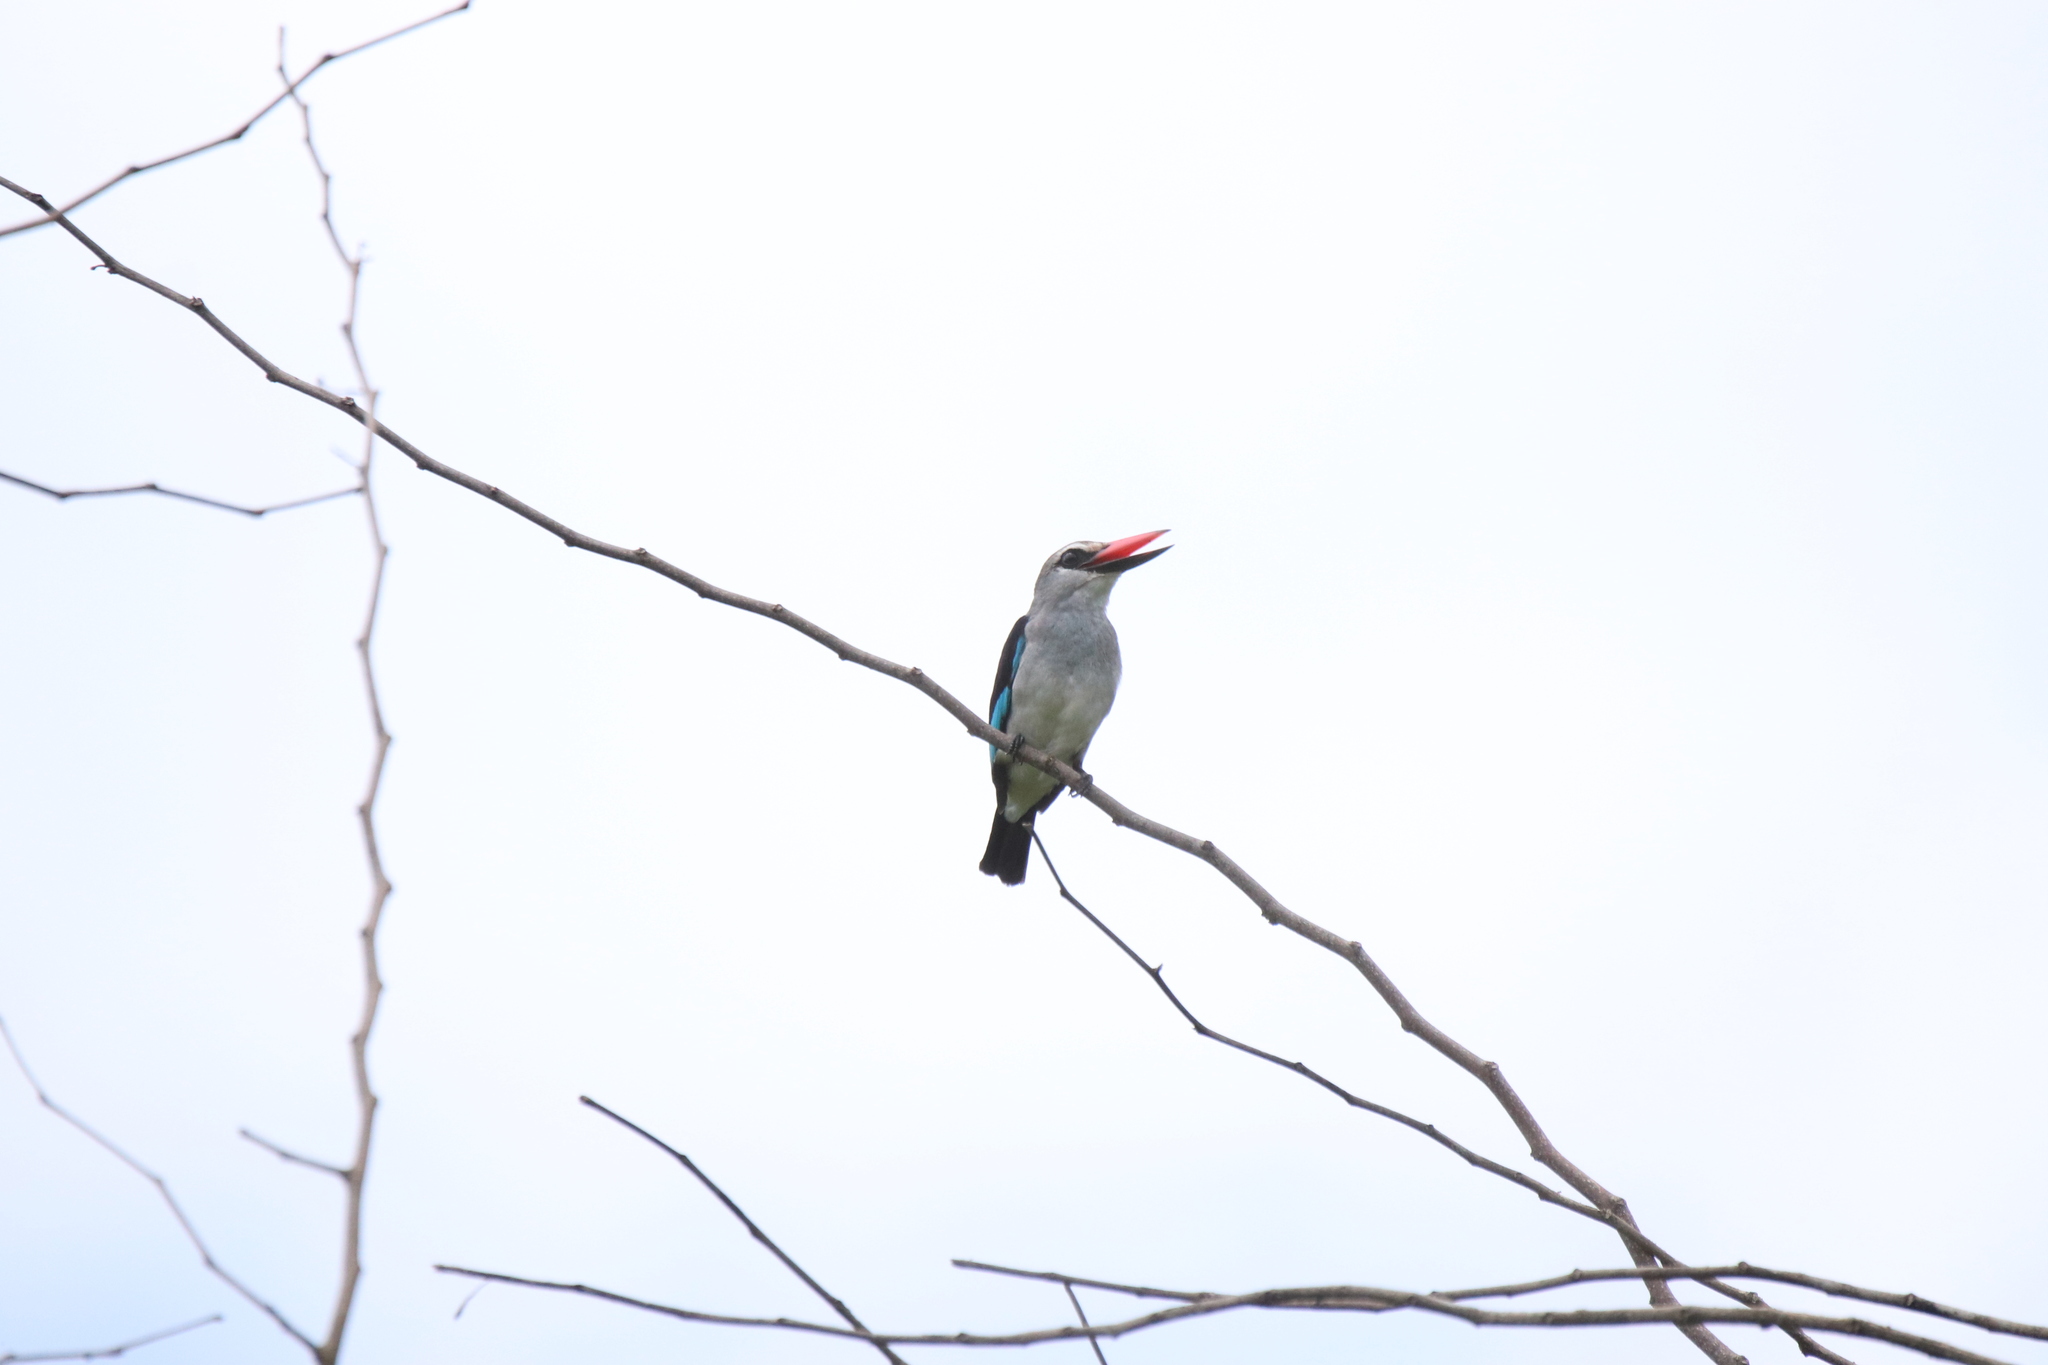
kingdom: Animalia
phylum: Chordata
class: Aves
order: Coraciiformes
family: Alcedinidae
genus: Halcyon
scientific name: Halcyon senegalensis
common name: Woodland kingfisher
